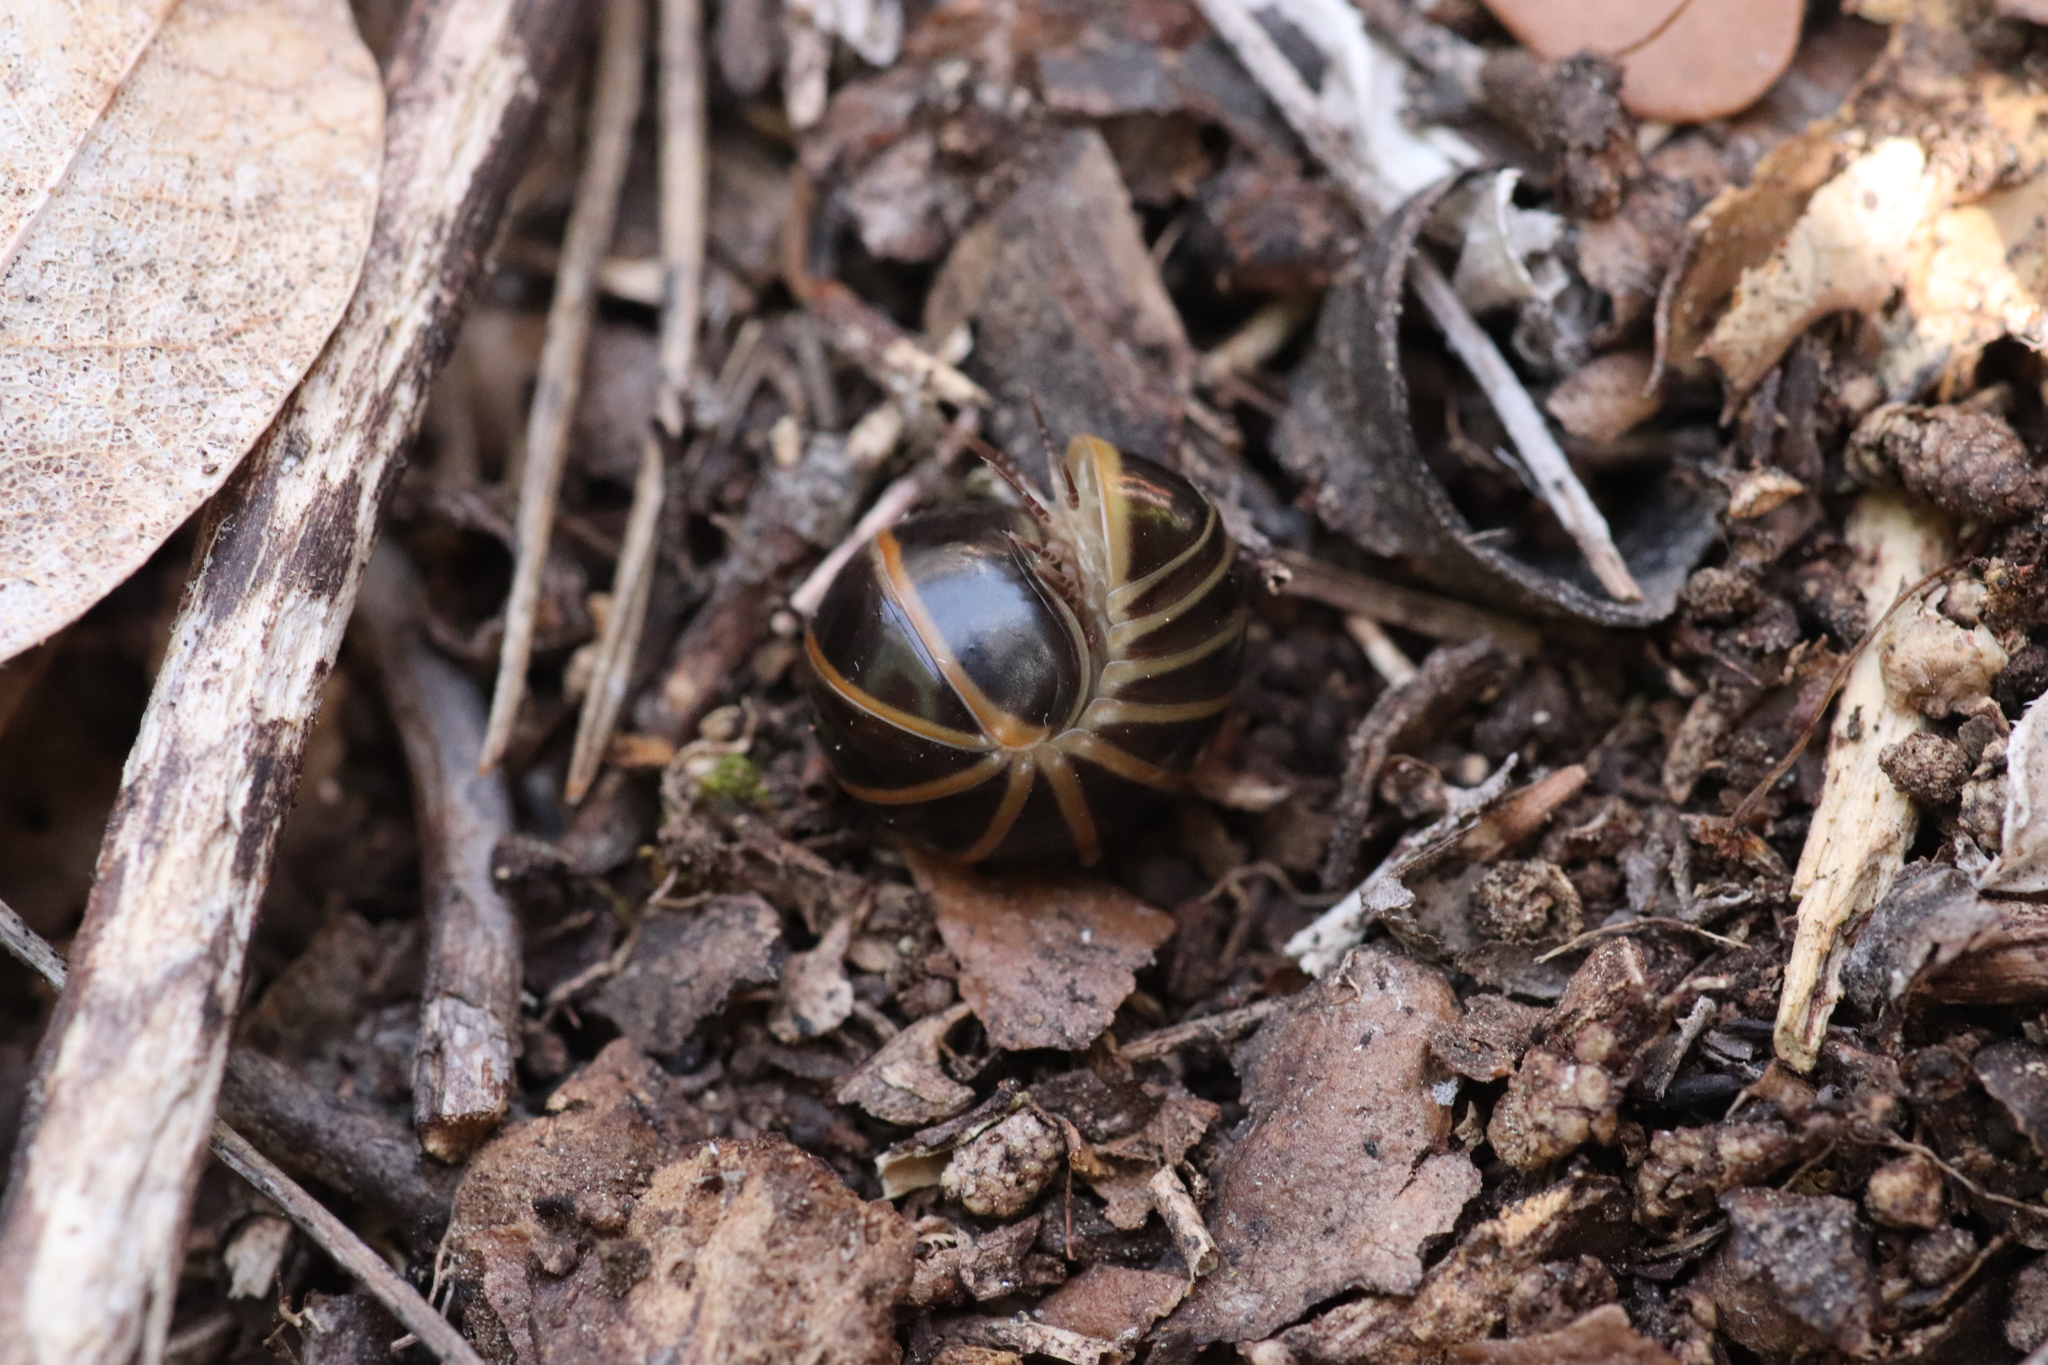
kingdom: Animalia
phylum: Arthropoda
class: Diplopoda
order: Glomerida
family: Glomeridae
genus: Glomeris
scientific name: Glomeris marginata
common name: Bordered pill millipede
